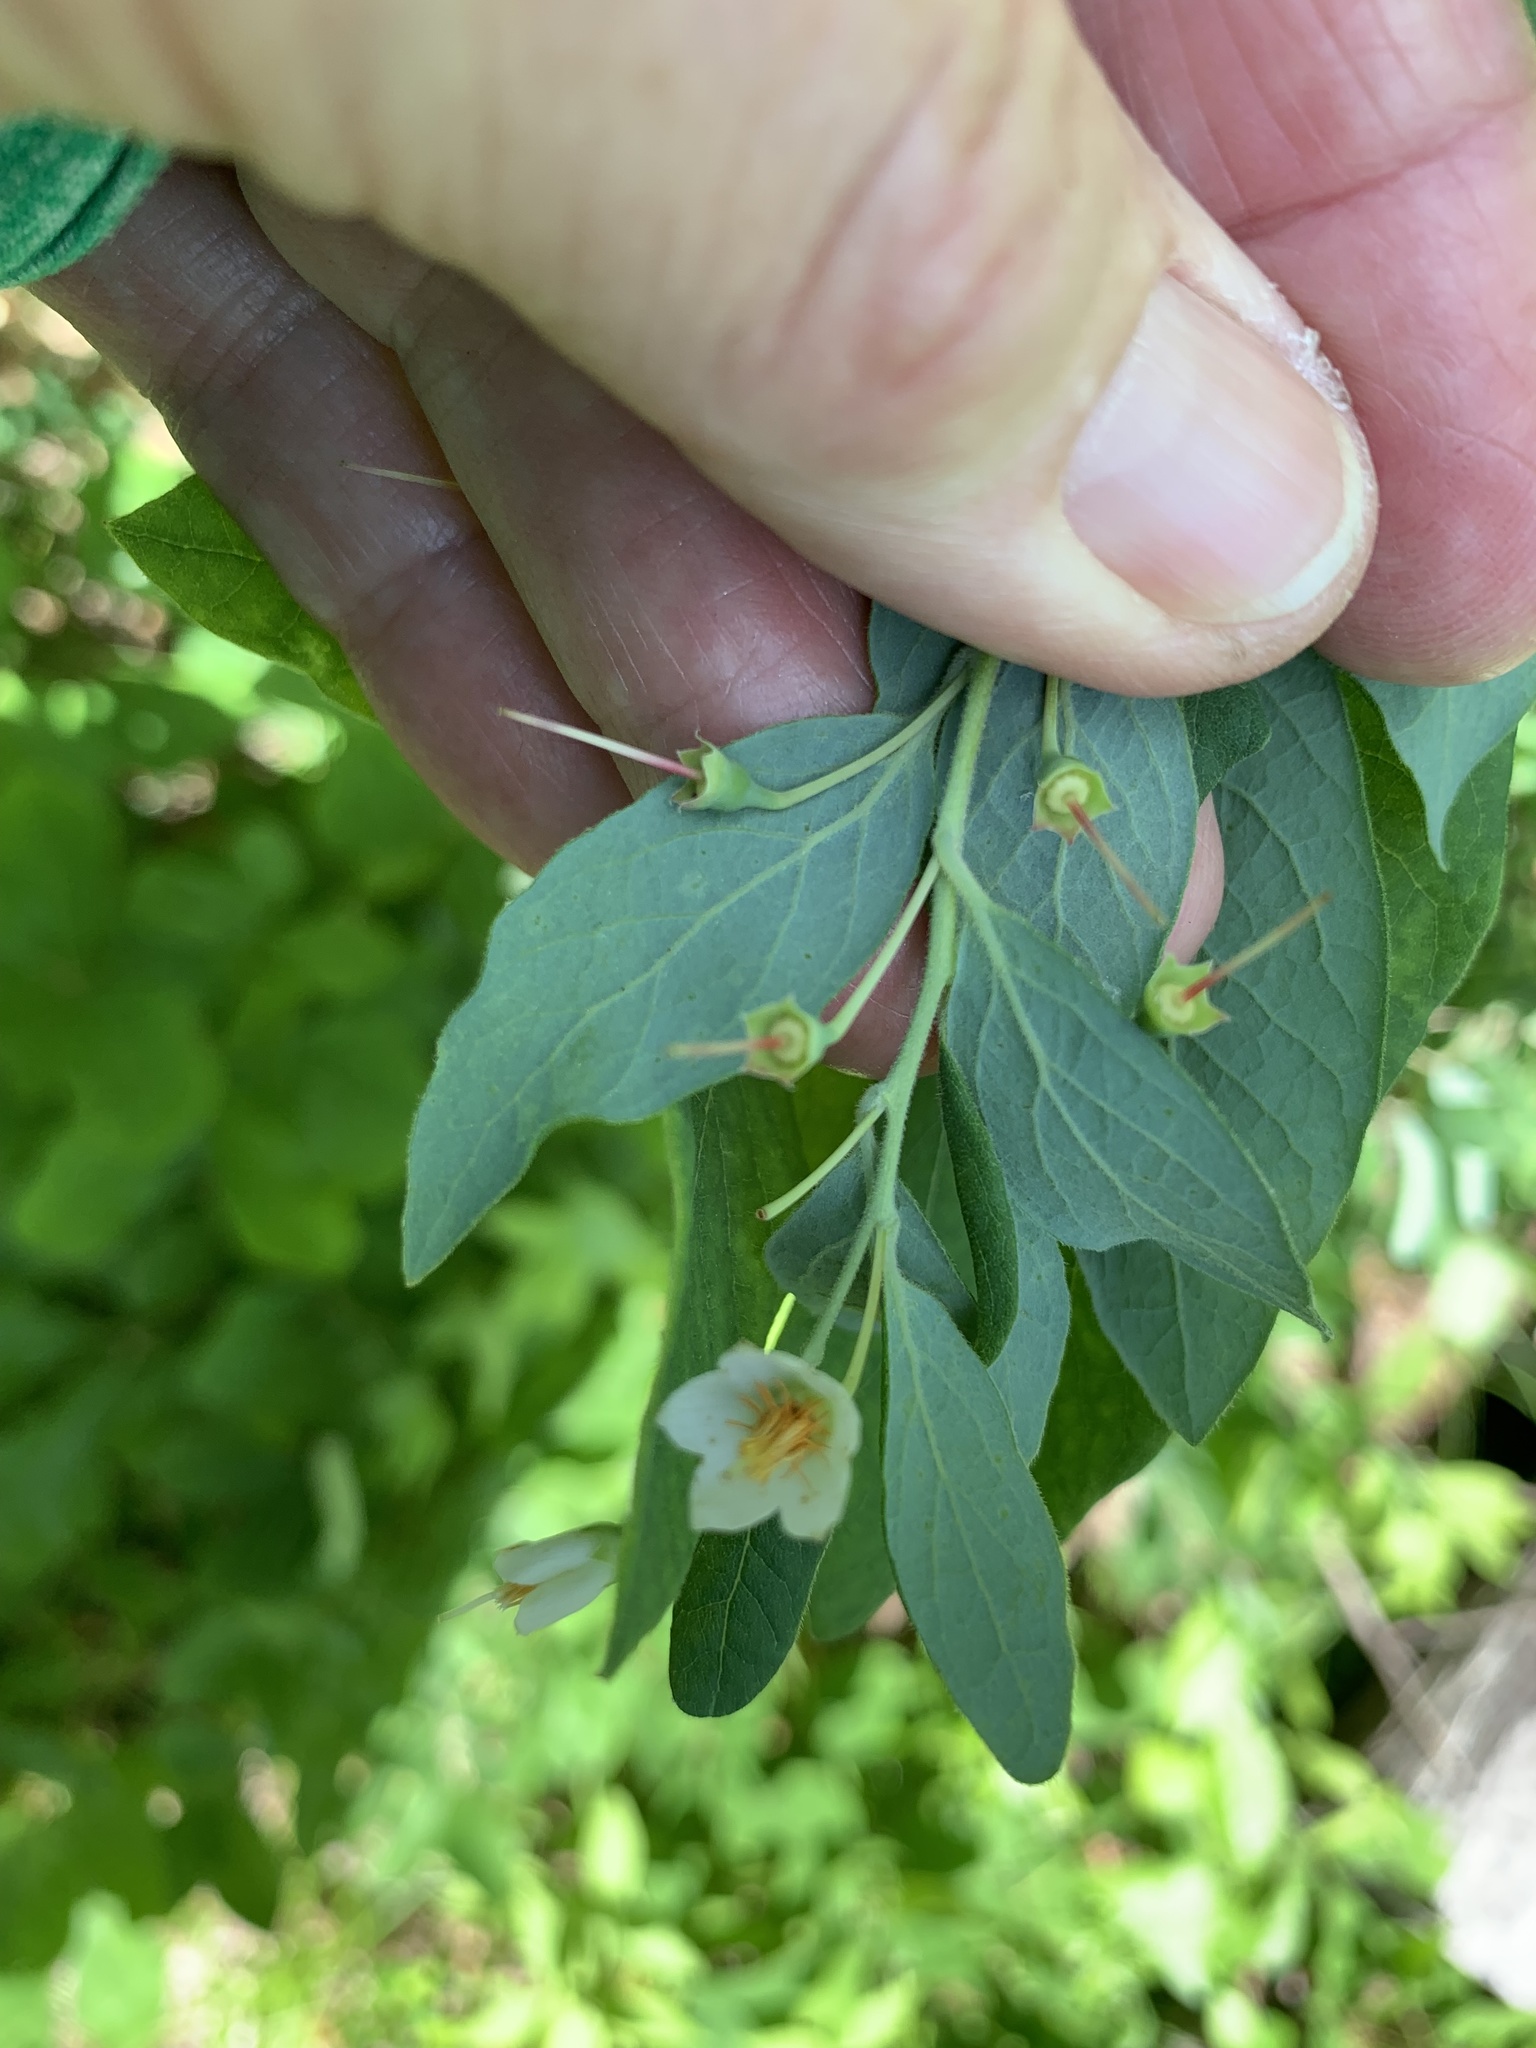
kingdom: Plantae
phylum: Tracheophyta
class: Magnoliopsida
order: Ericales
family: Ericaceae
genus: Vaccinium
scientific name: Vaccinium stamineum
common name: Deerberry
